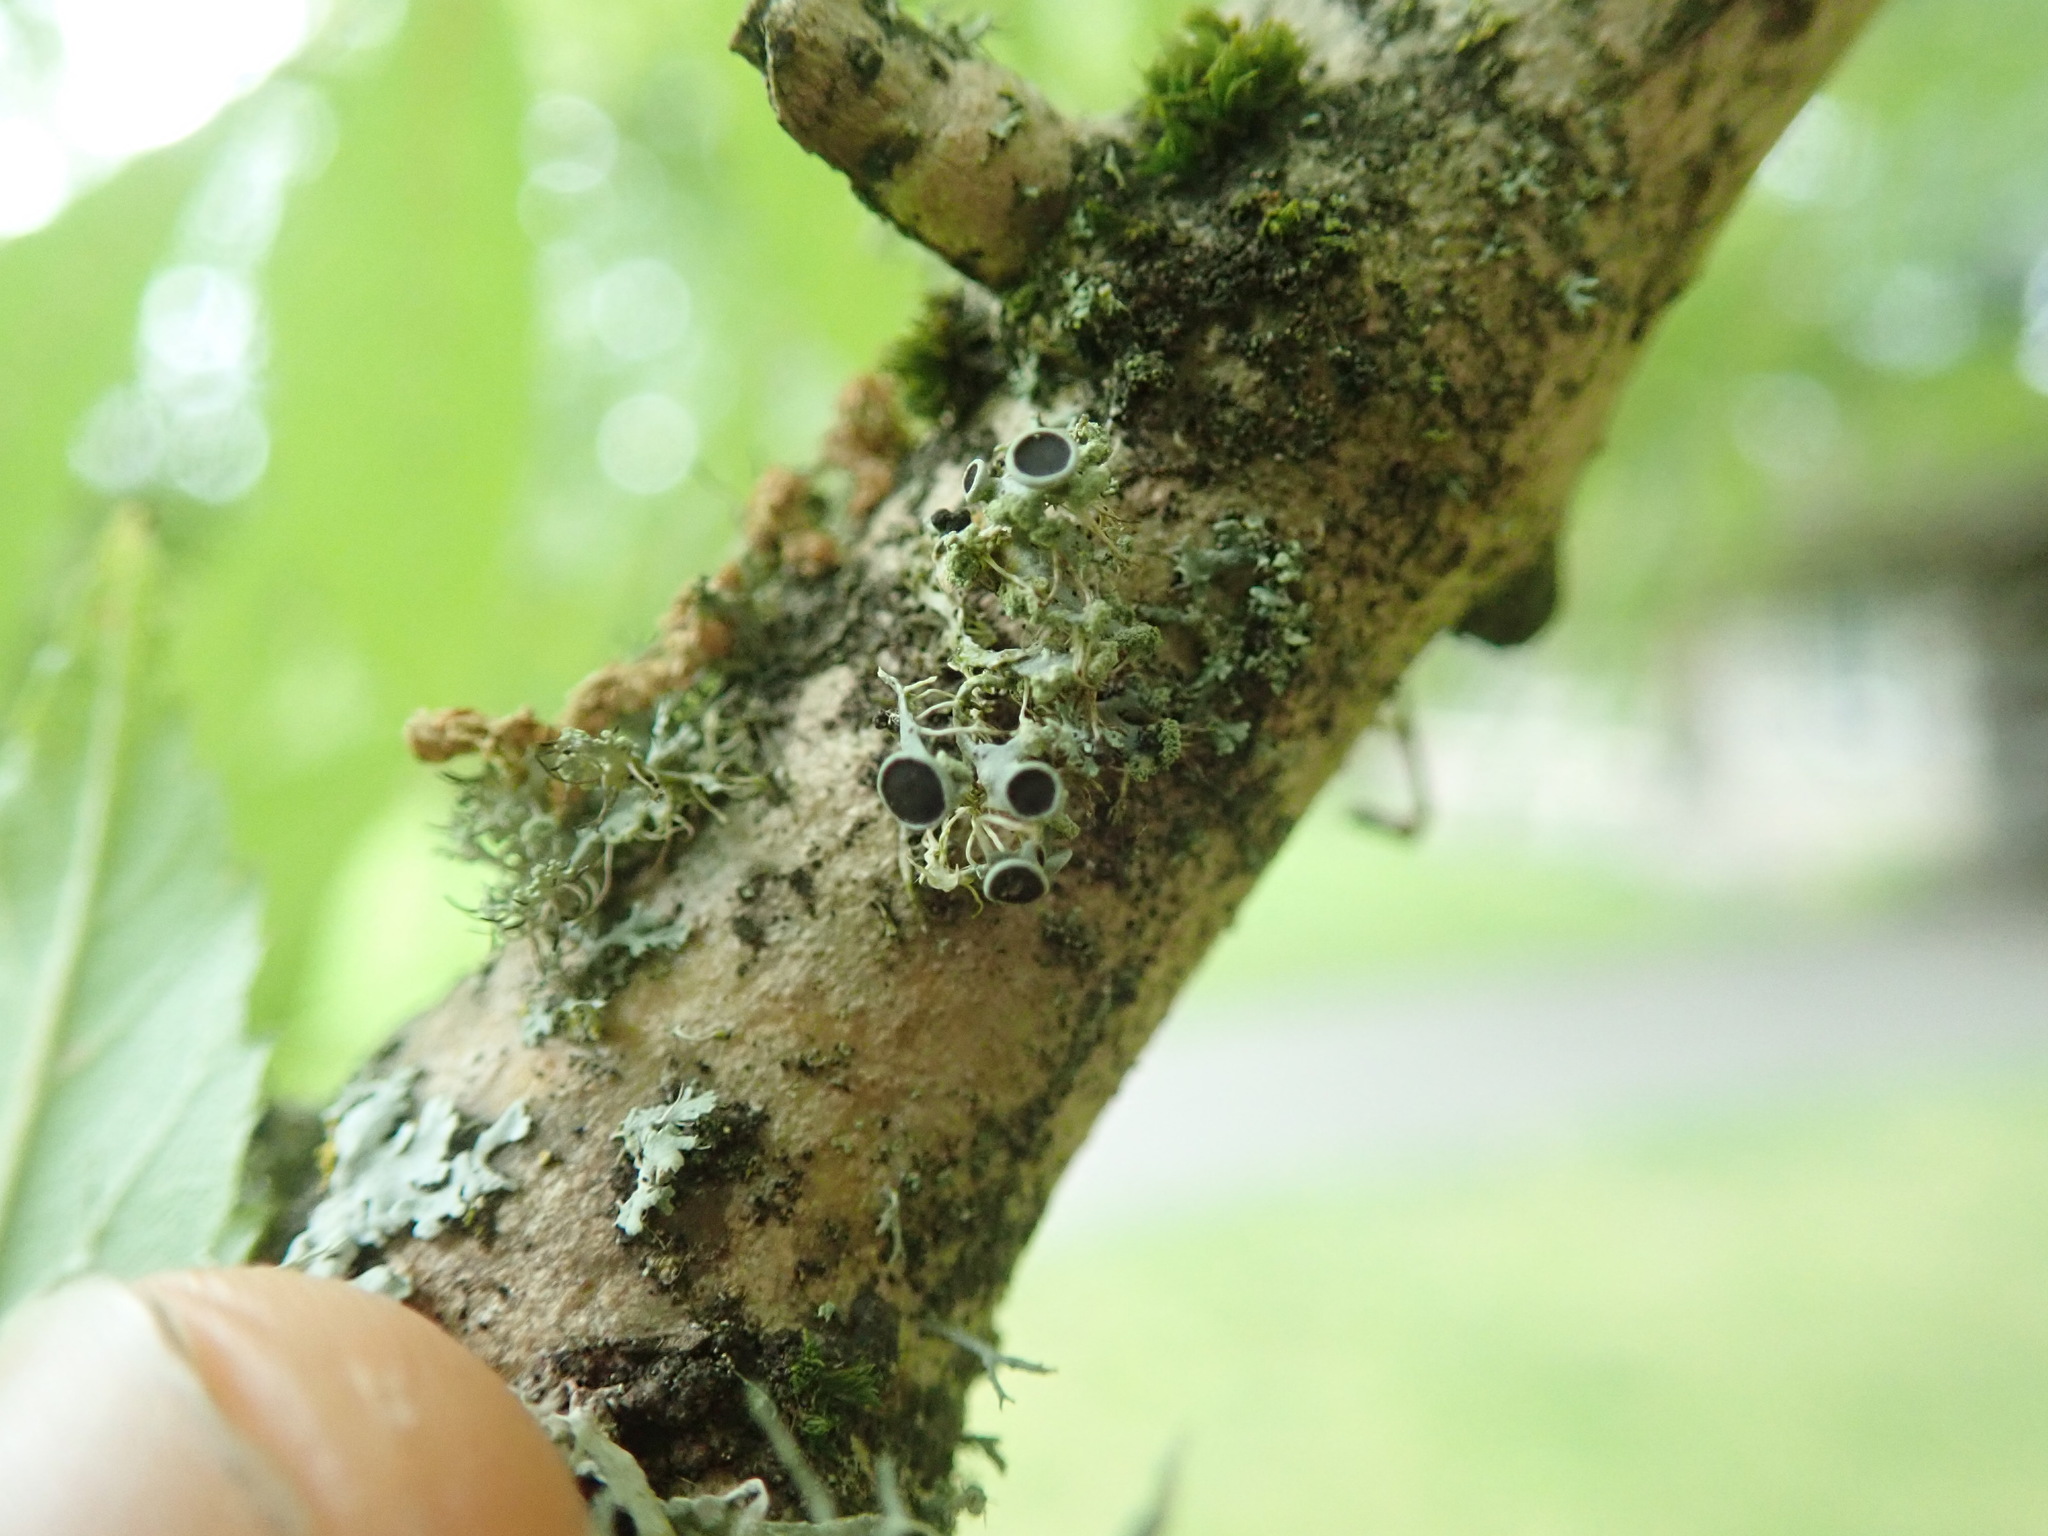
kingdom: Fungi
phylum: Ascomycota
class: Lecanoromycetes
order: Caliciales
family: Physciaceae
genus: Physcia
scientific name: Physcia tenella
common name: Fringed rosette lichen
